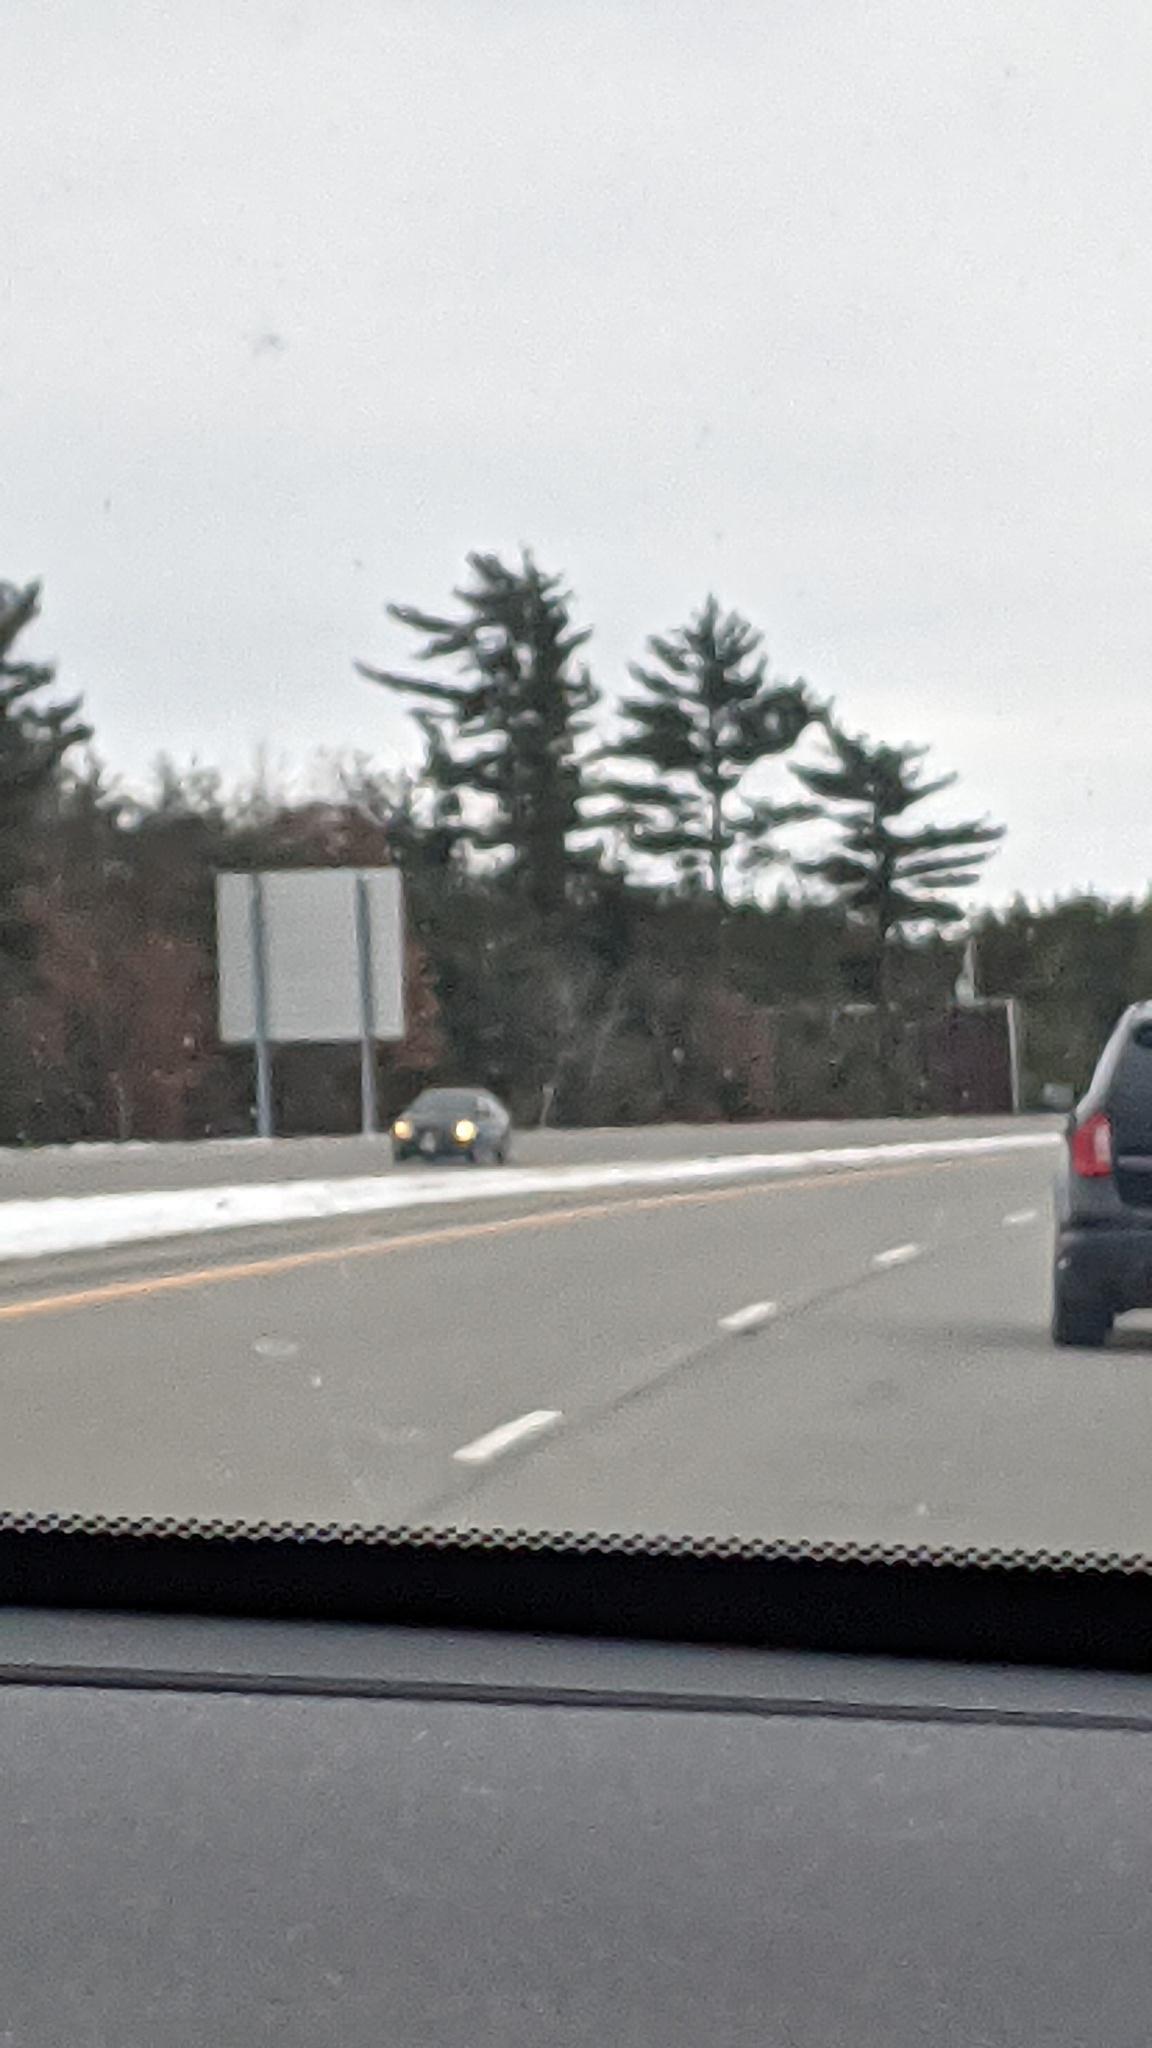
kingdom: Plantae
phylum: Tracheophyta
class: Pinopsida
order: Pinales
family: Pinaceae
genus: Pinus
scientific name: Pinus strobus
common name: Weymouth pine
